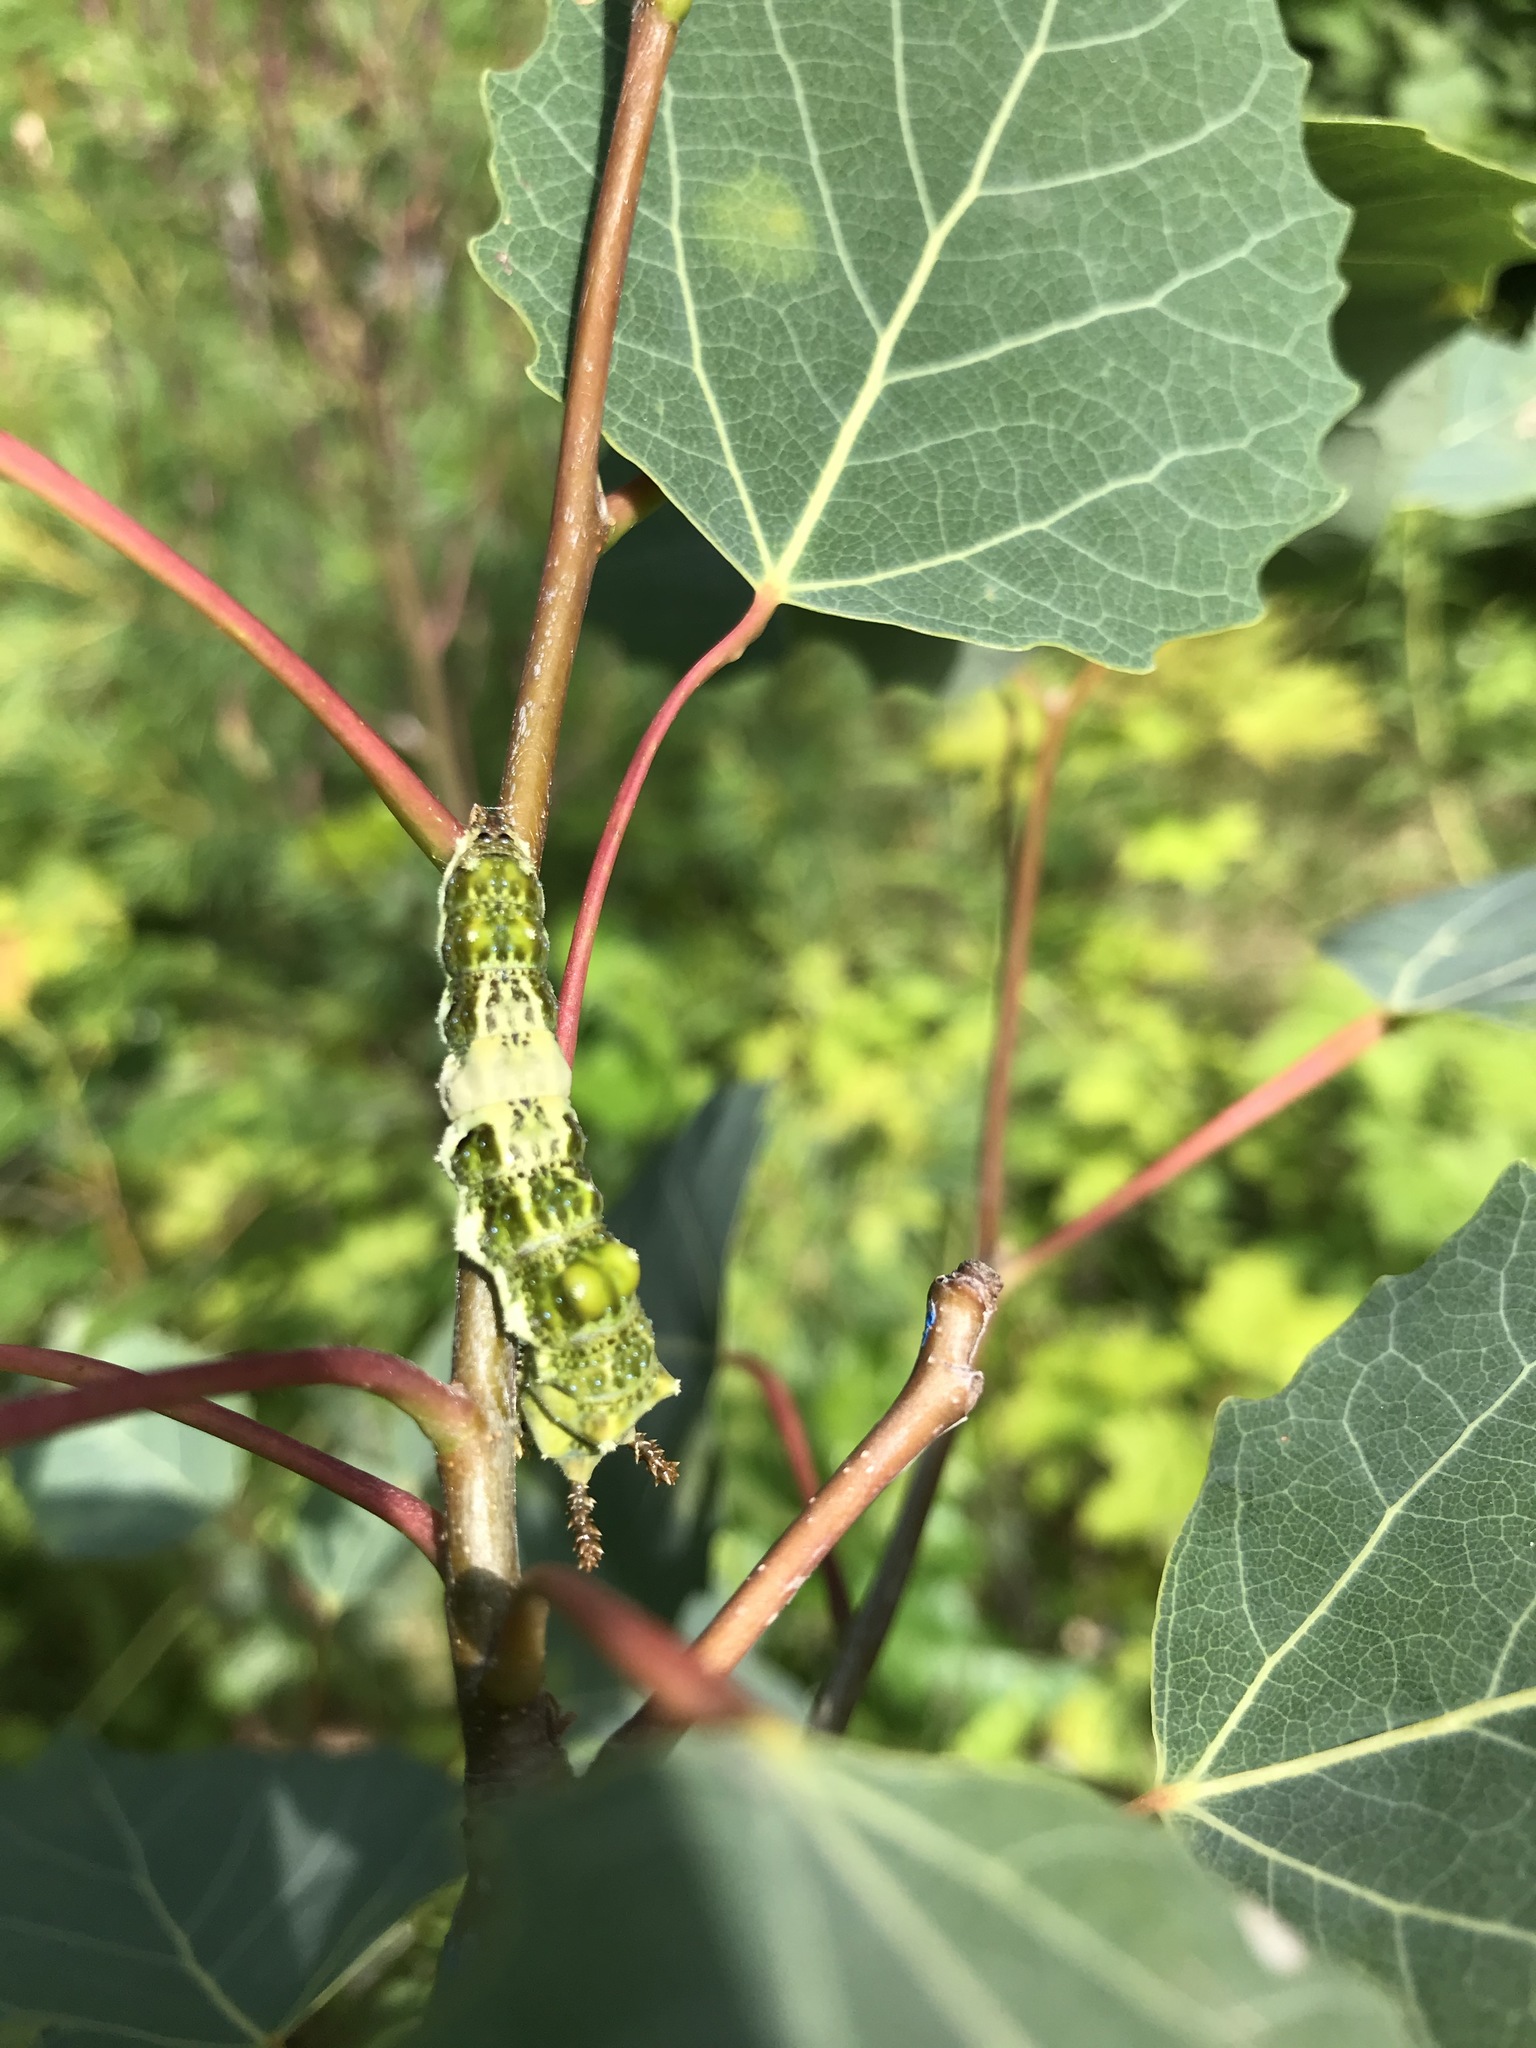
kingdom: Animalia
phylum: Arthropoda
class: Insecta
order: Lepidoptera
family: Nymphalidae
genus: Limenitis
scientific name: Limenitis archippus
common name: Viceroy
